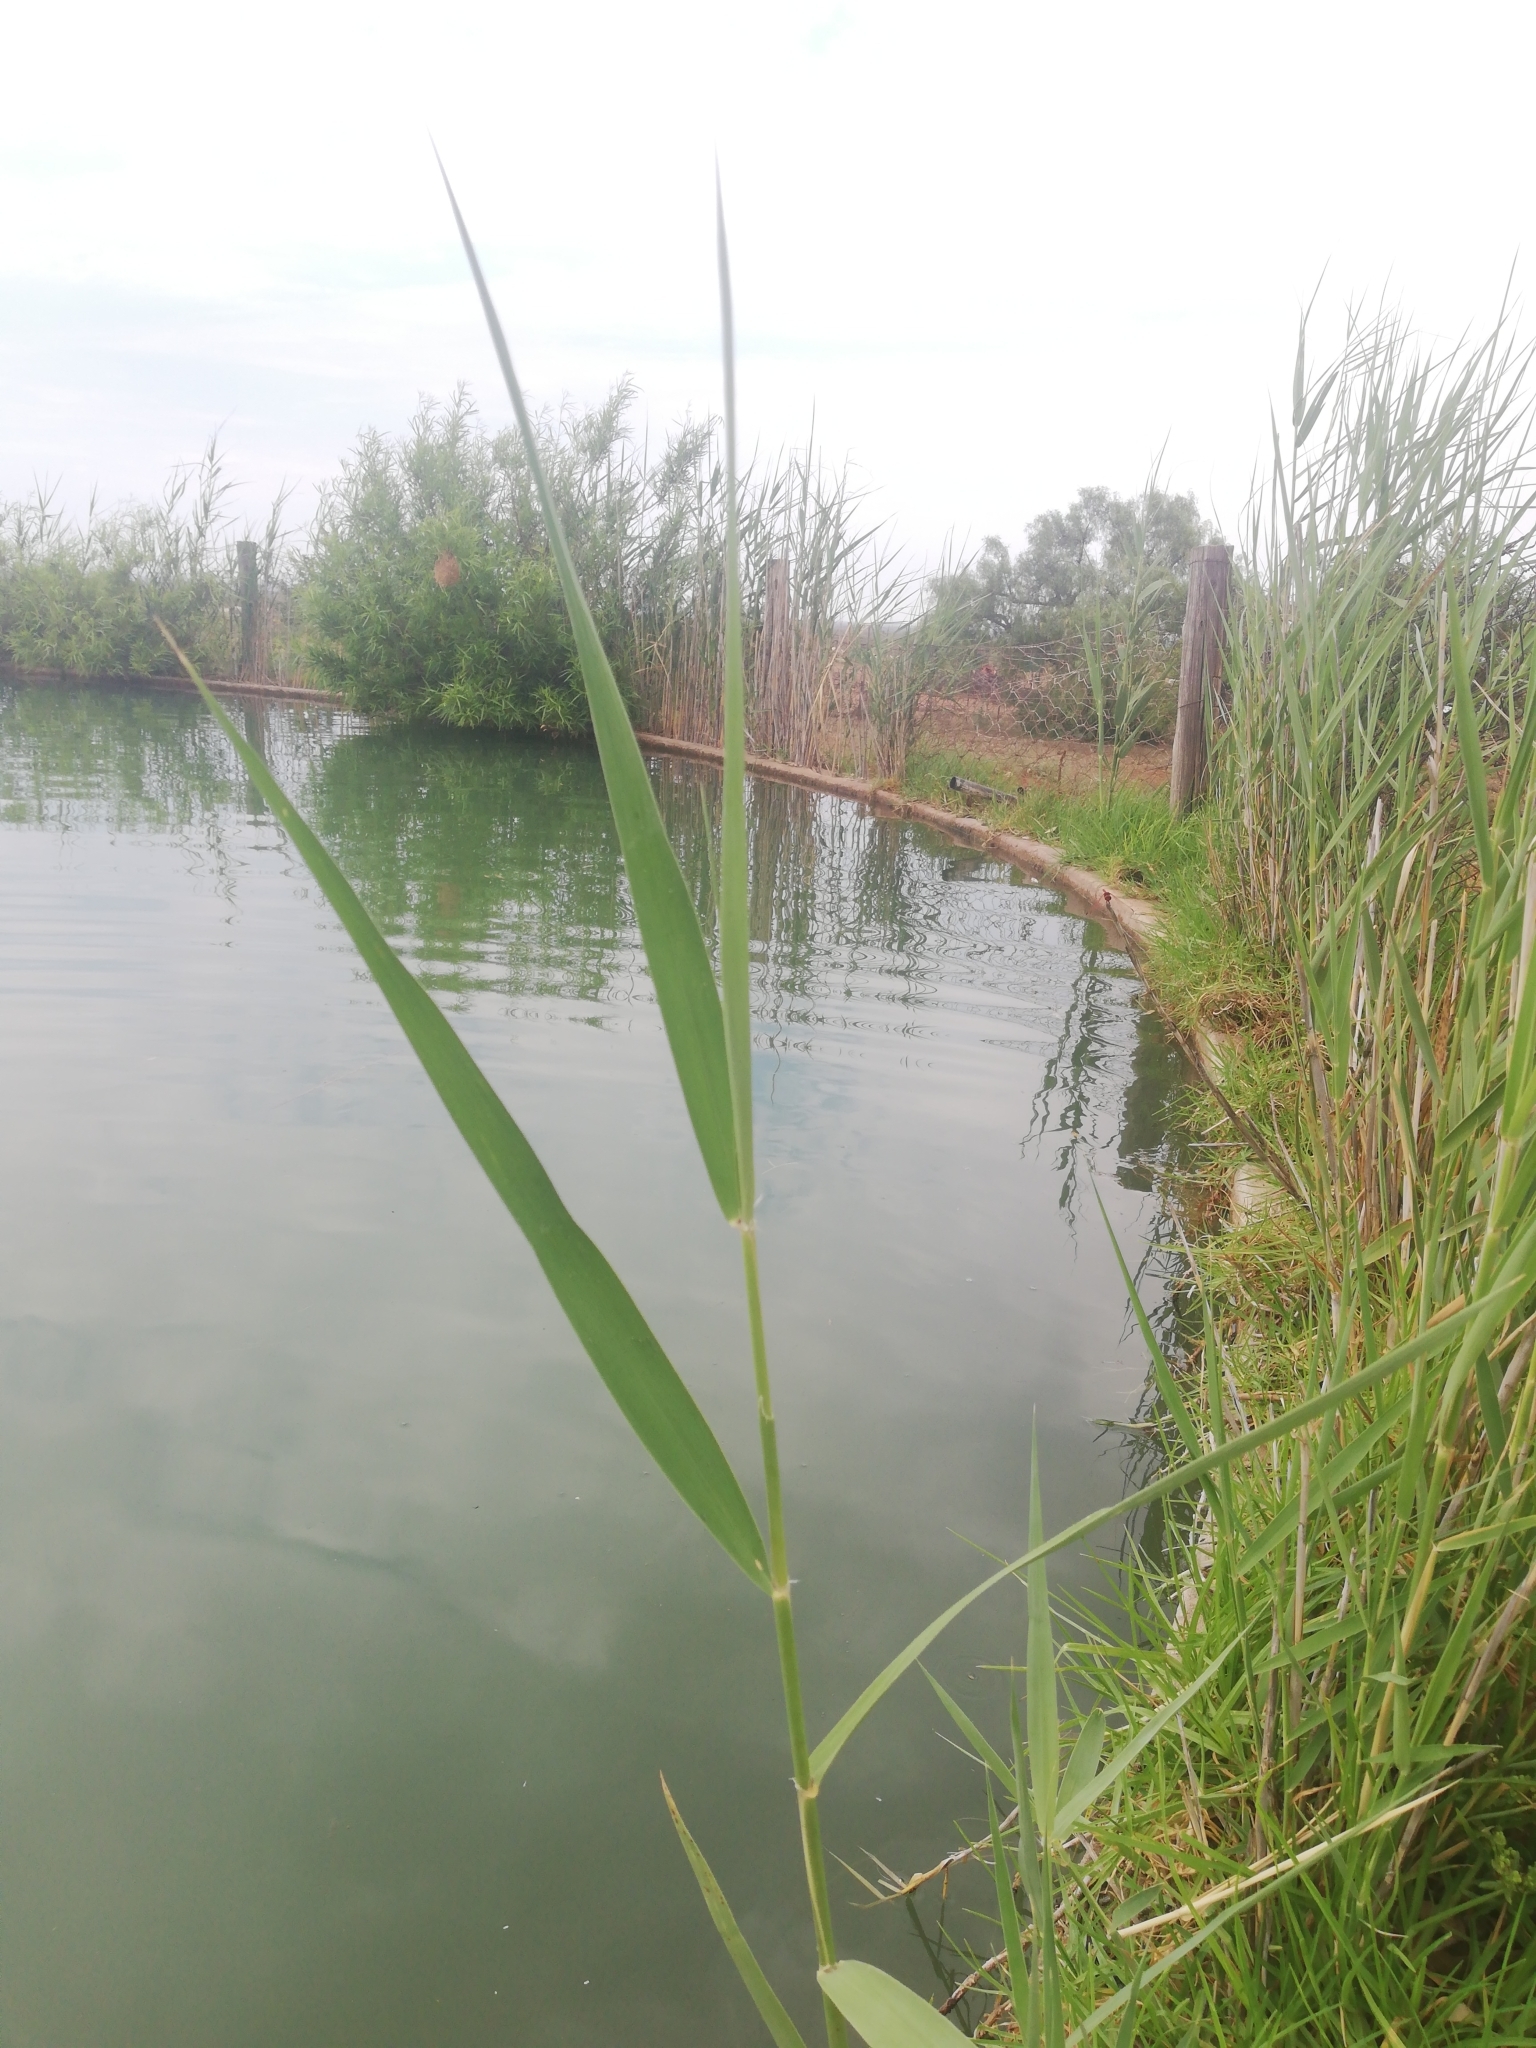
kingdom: Plantae
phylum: Tracheophyta
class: Liliopsida
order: Poales
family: Poaceae
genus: Phragmites
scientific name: Phragmites australis
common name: Common reed
